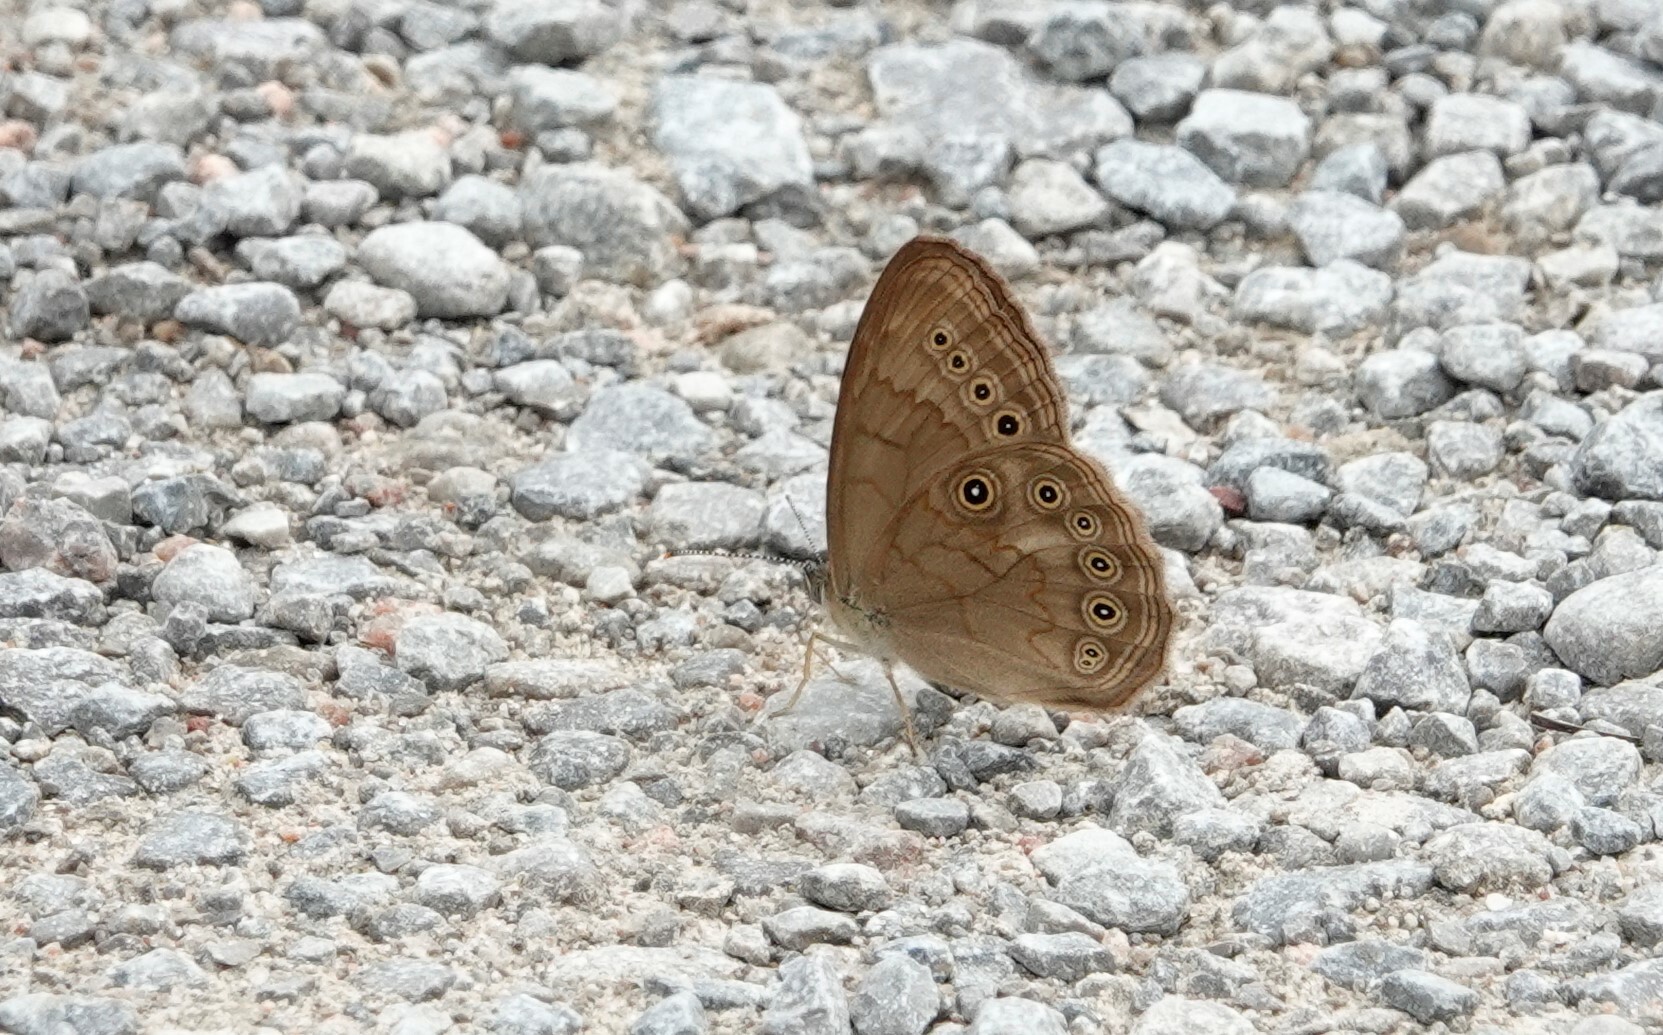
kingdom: Animalia
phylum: Arthropoda
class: Insecta
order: Lepidoptera
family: Nymphalidae
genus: Lethe
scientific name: Lethe eurydice
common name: Eyed brown
